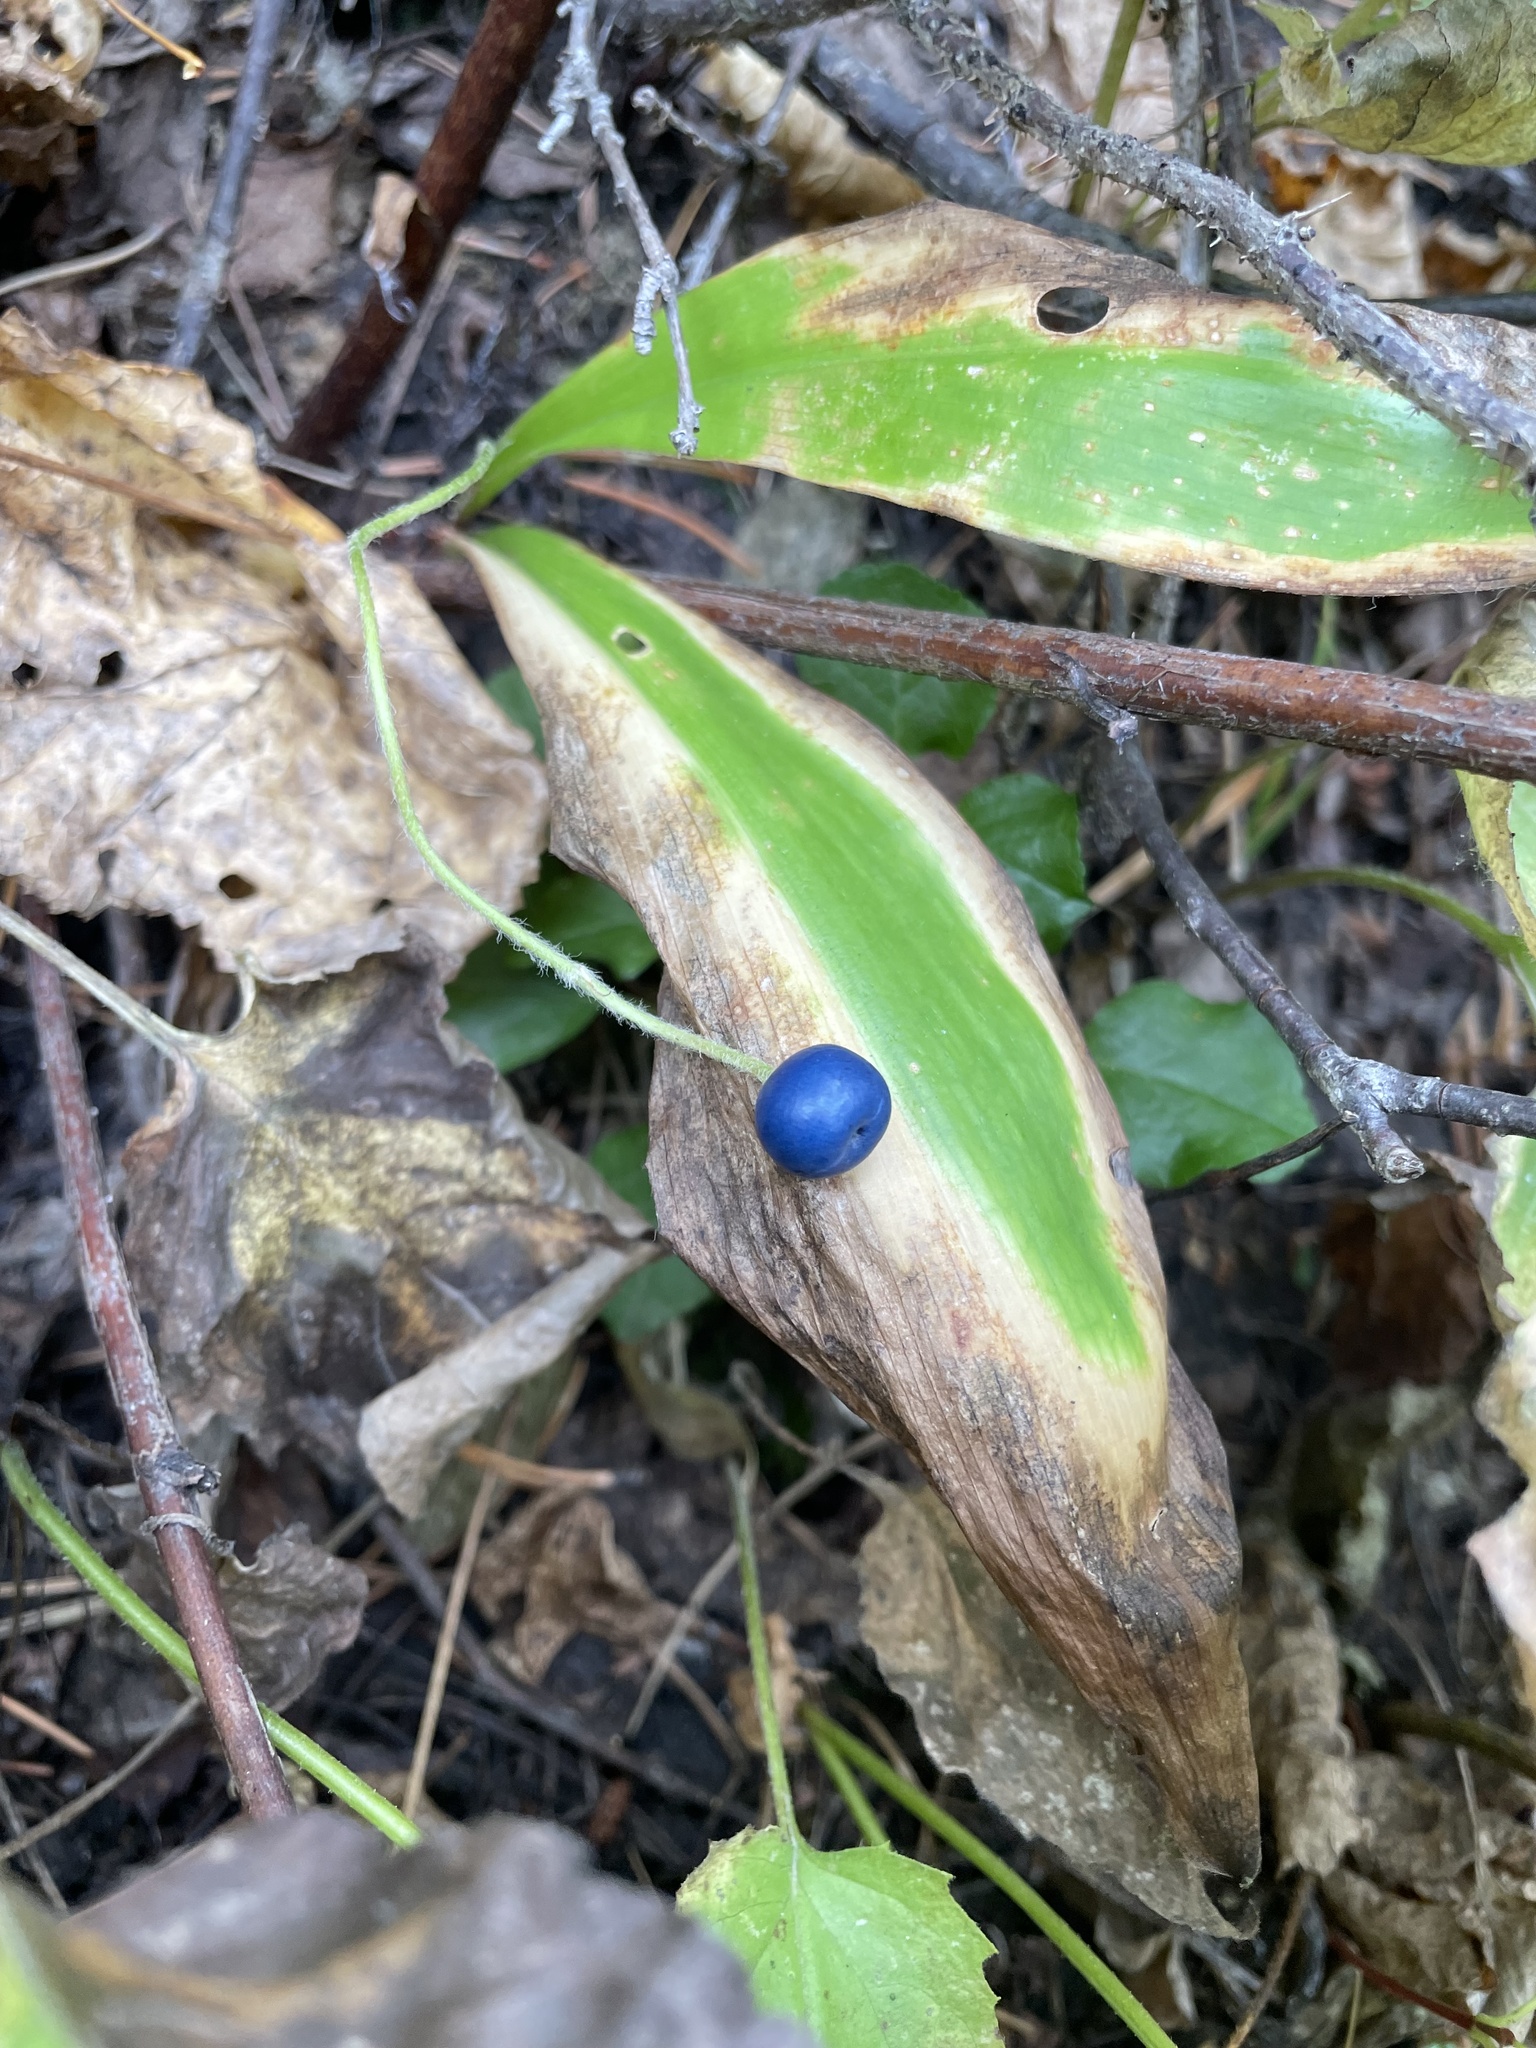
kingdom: Plantae
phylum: Tracheophyta
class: Liliopsida
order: Liliales
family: Liliaceae
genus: Clintonia
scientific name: Clintonia uniflora
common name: Queen's cup
